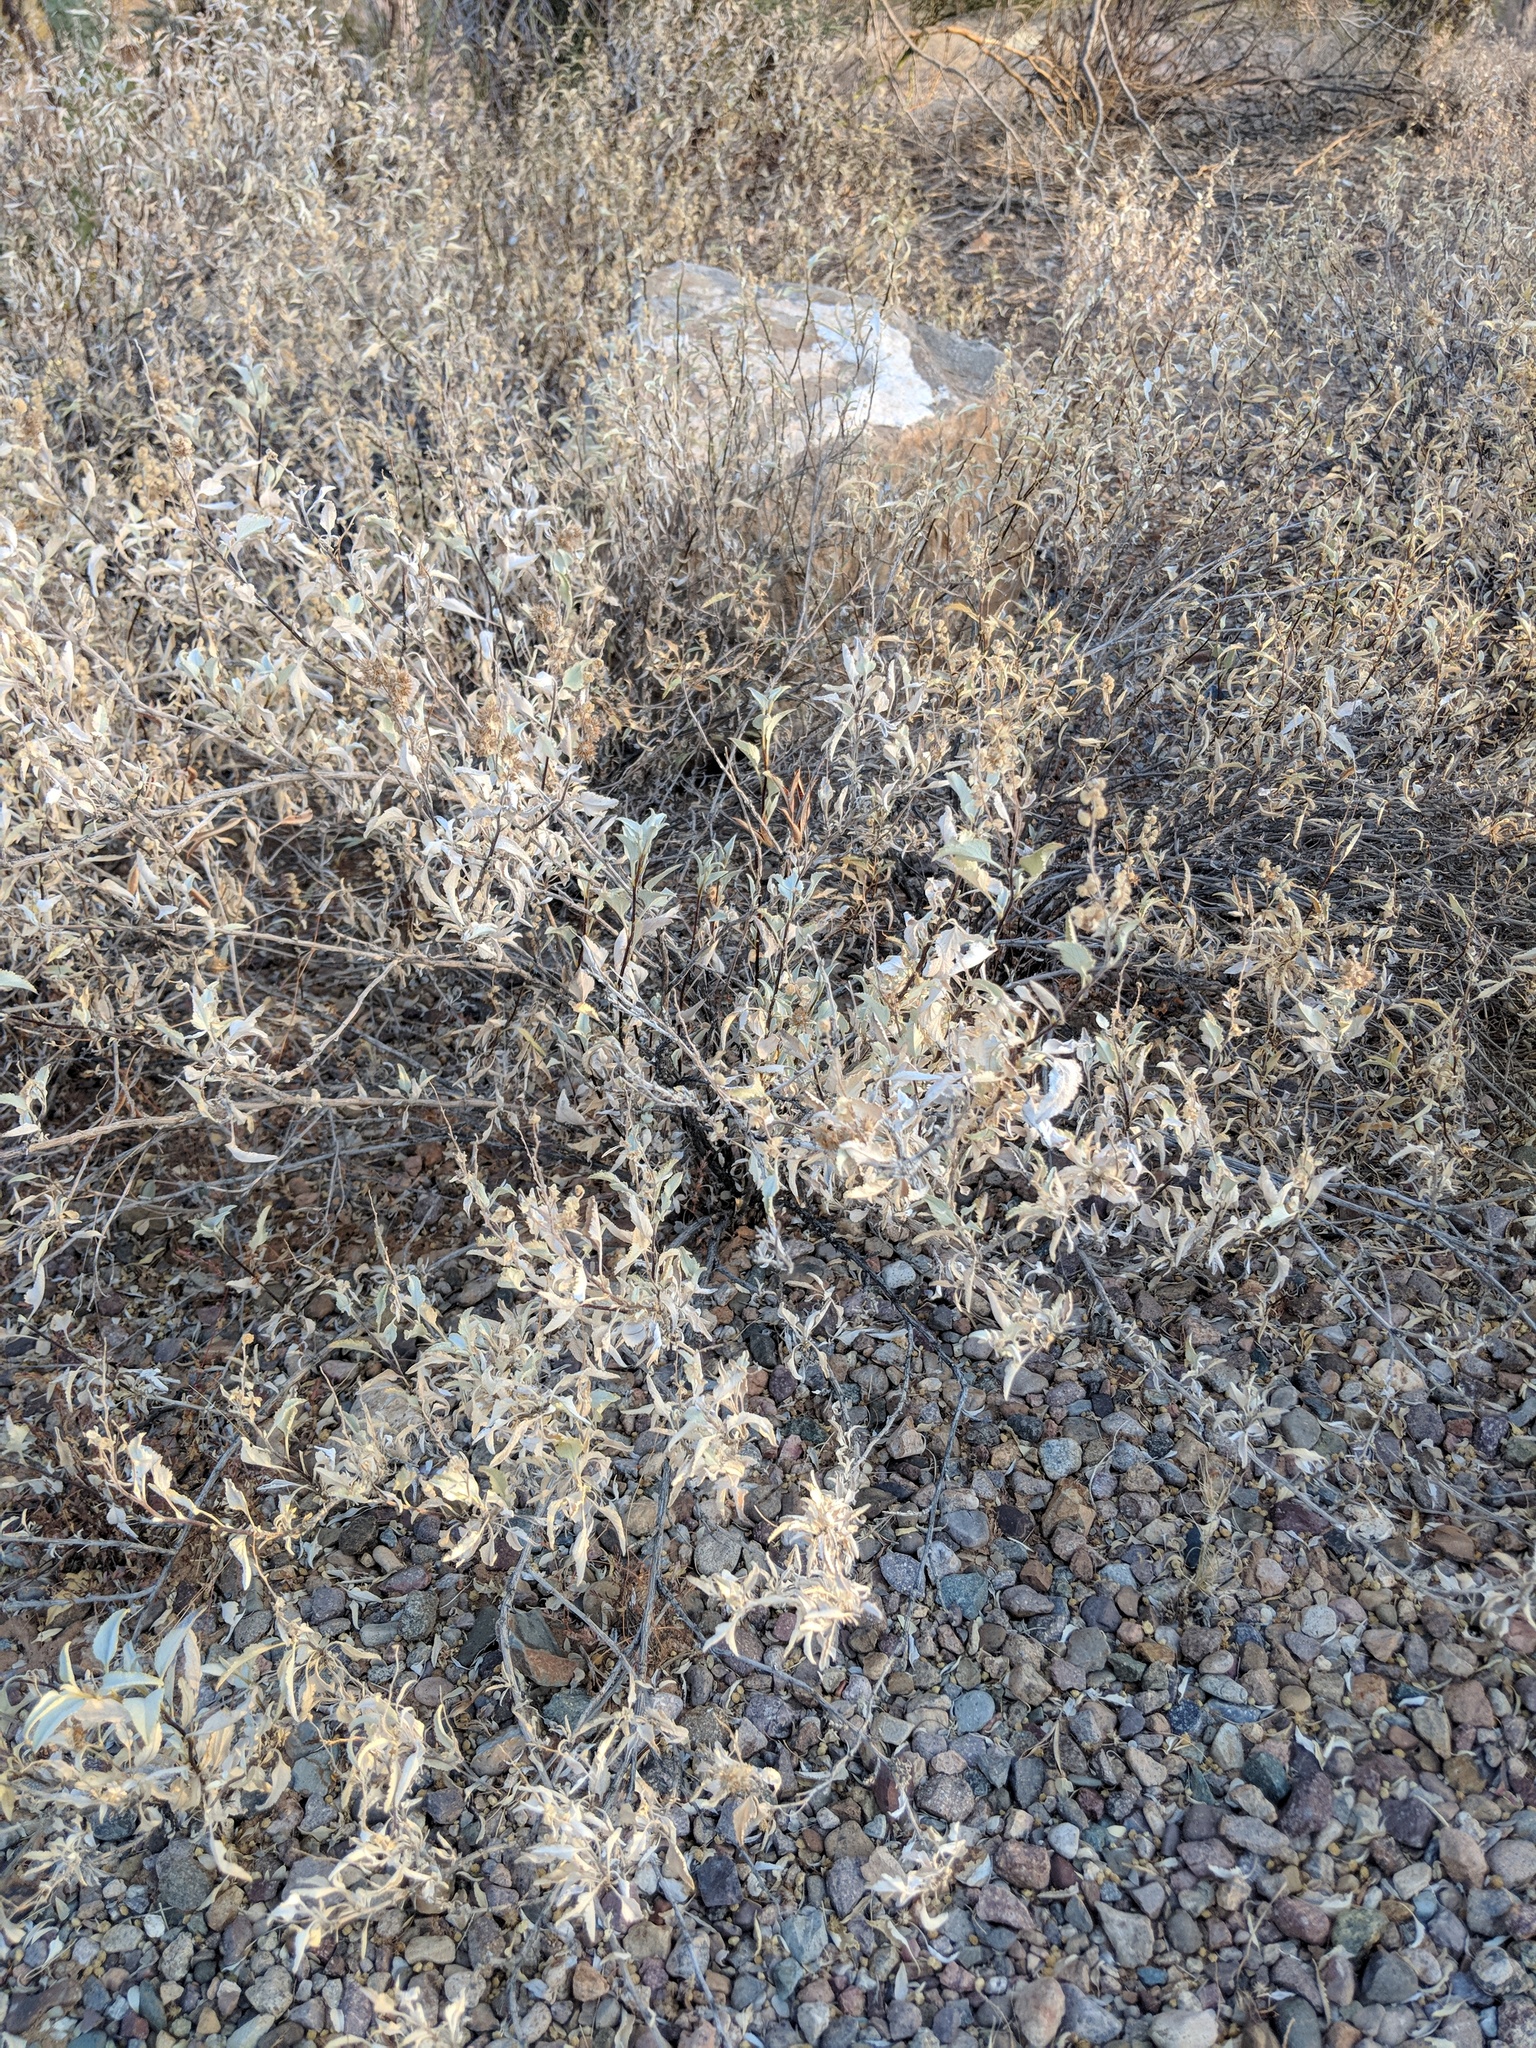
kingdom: Plantae
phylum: Tracheophyta
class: Magnoliopsida
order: Asterales
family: Asteraceae
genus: Ambrosia
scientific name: Ambrosia deltoidea
